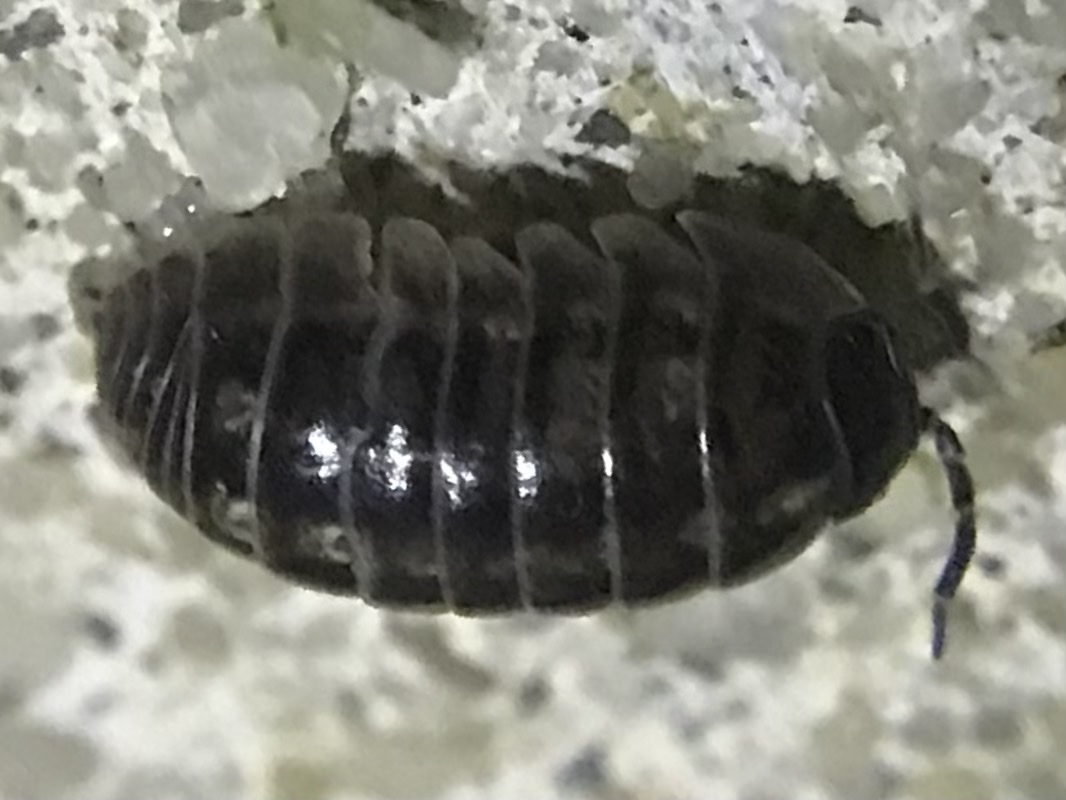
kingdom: Animalia
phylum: Arthropoda
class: Malacostraca
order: Isopoda
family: Armadillidiidae
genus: Armadillidium
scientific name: Armadillidium vulgare
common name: Common pill woodlouse
